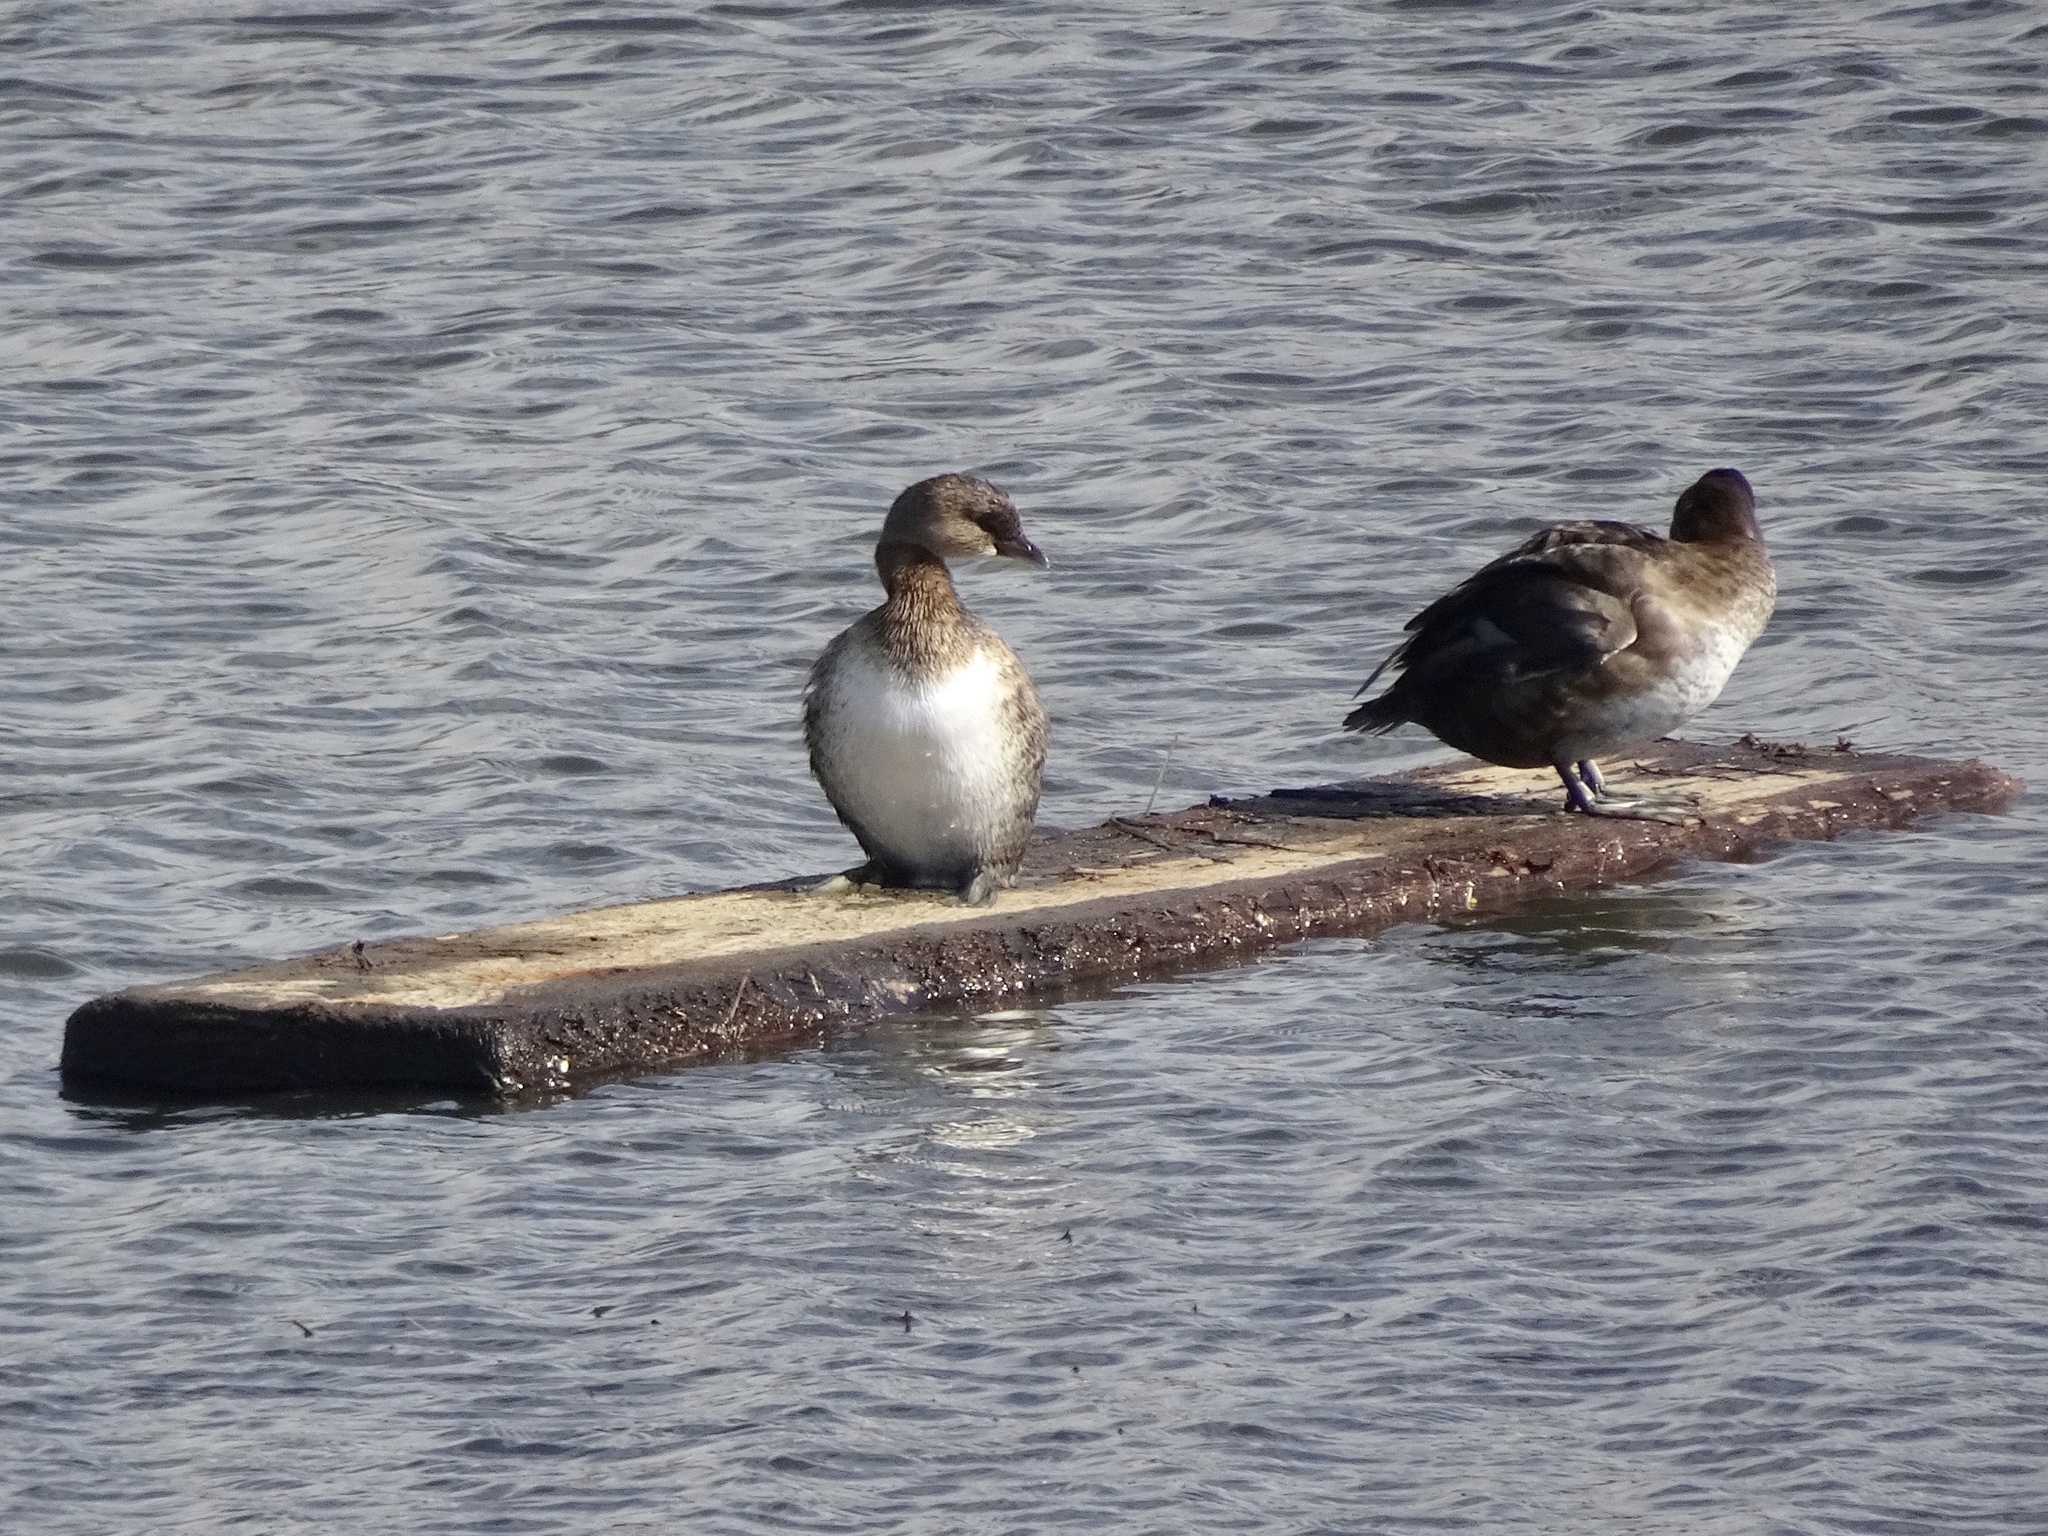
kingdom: Animalia
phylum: Chordata
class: Aves
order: Podicipediformes
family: Podicipedidae
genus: Podilymbus
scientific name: Podilymbus podiceps
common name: Pied-billed grebe
